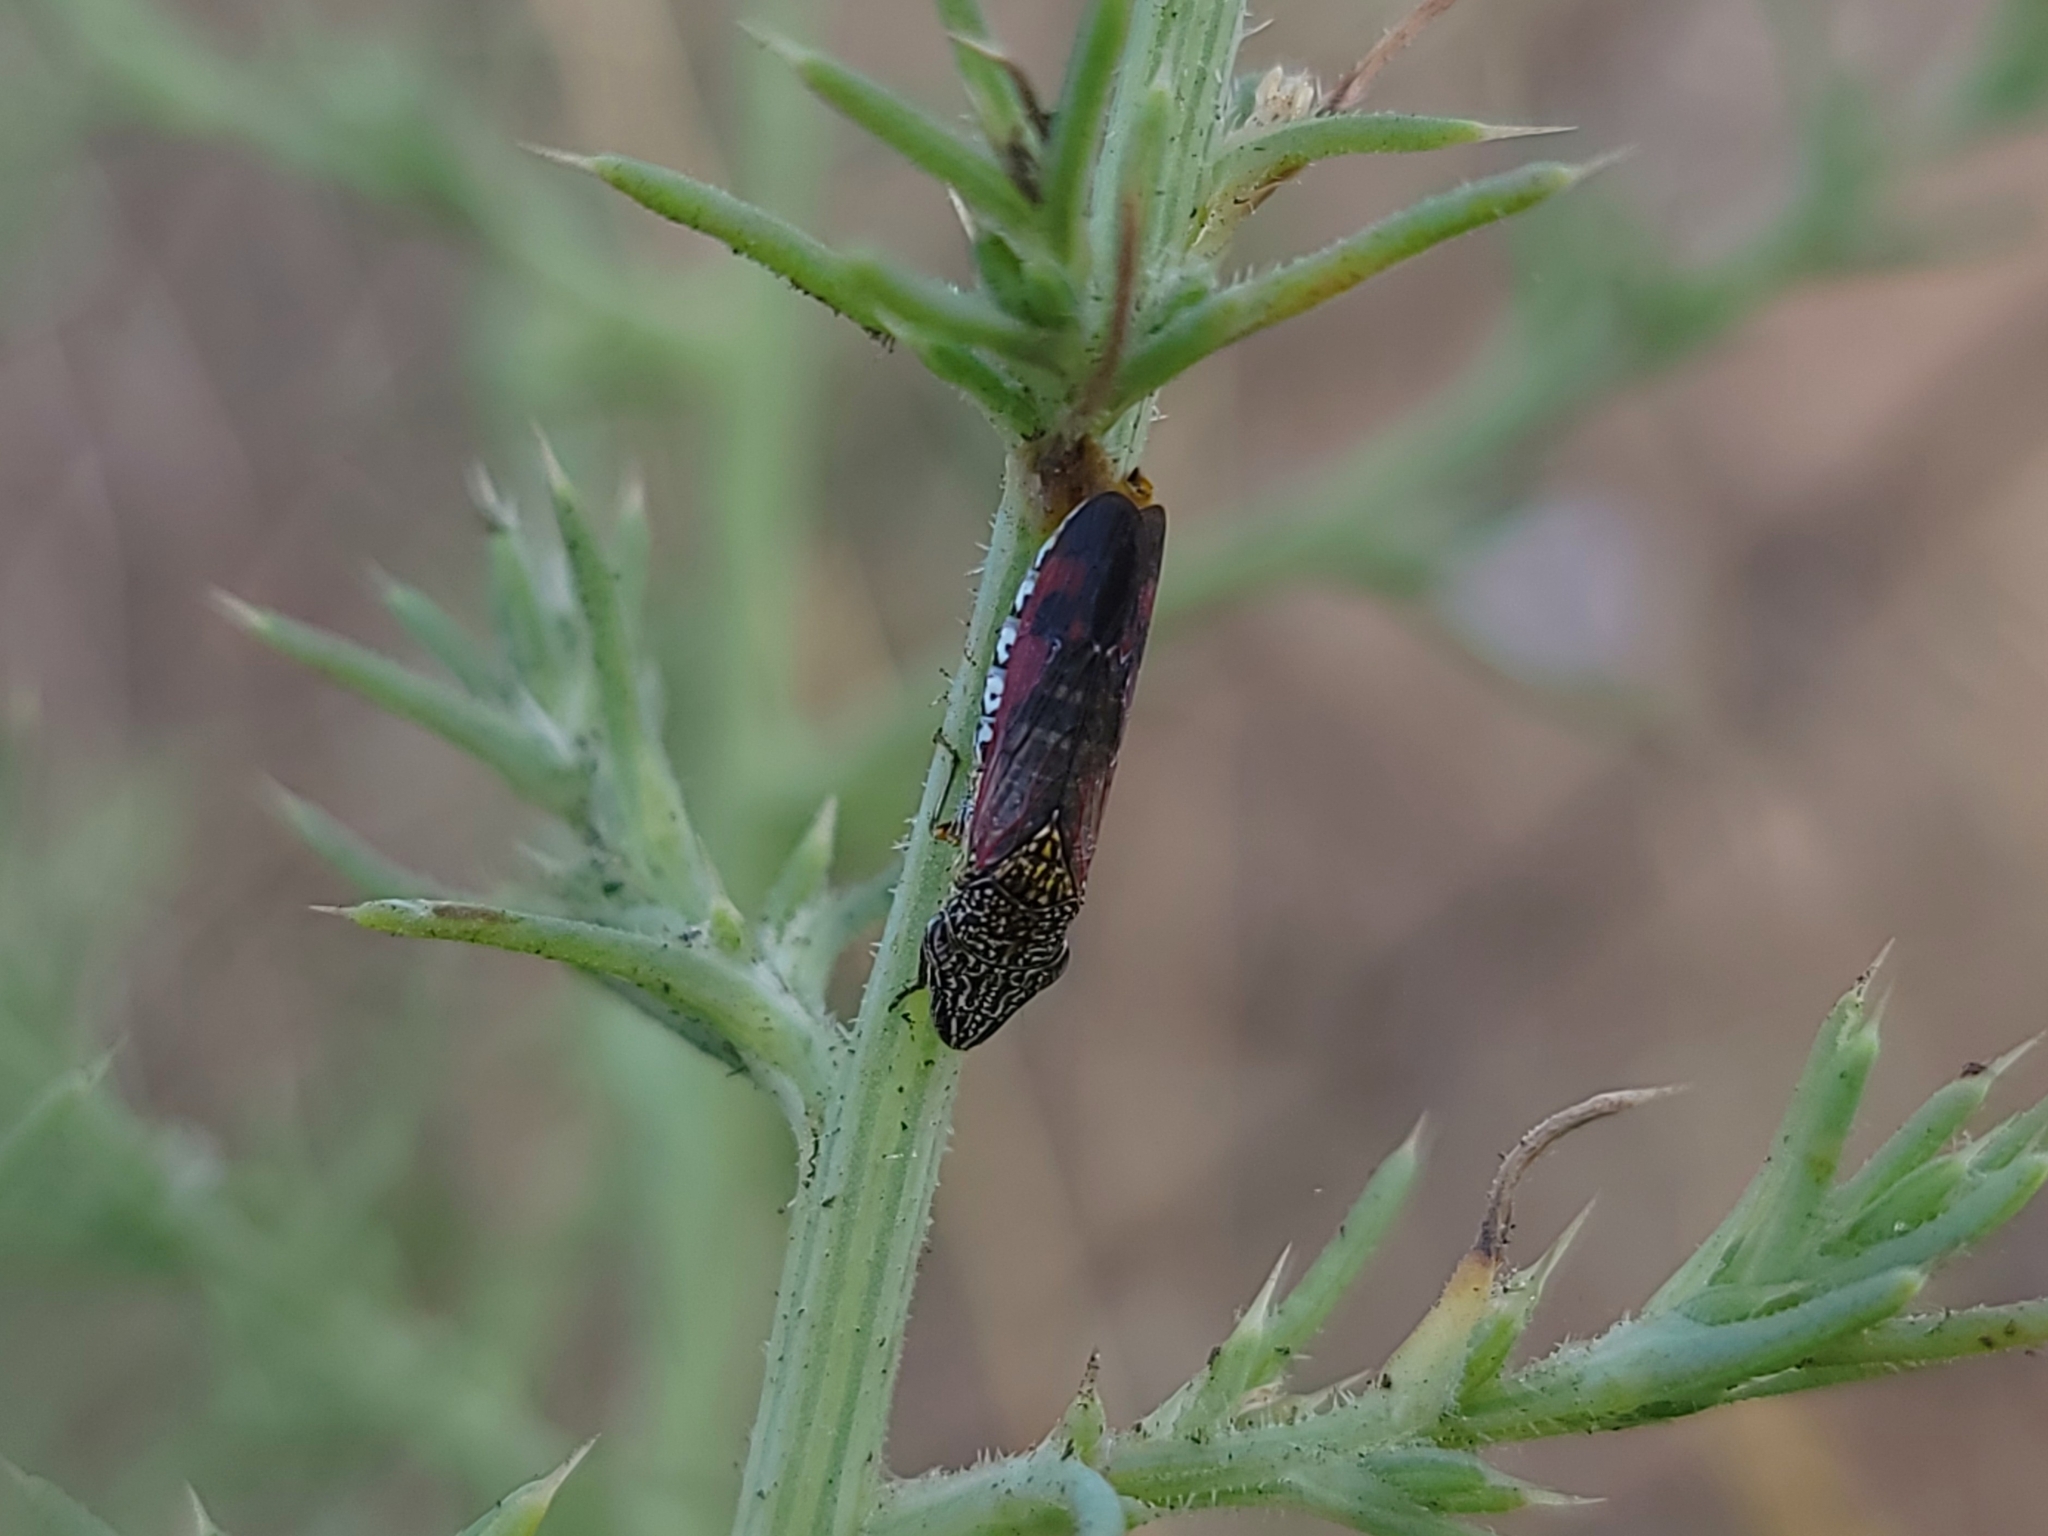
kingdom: Animalia
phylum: Arthropoda
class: Insecta
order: Hemiptera
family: Cicadellidae
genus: Homalodisca
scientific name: Homalodisca liturata
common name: Lacertate sharpshooter
